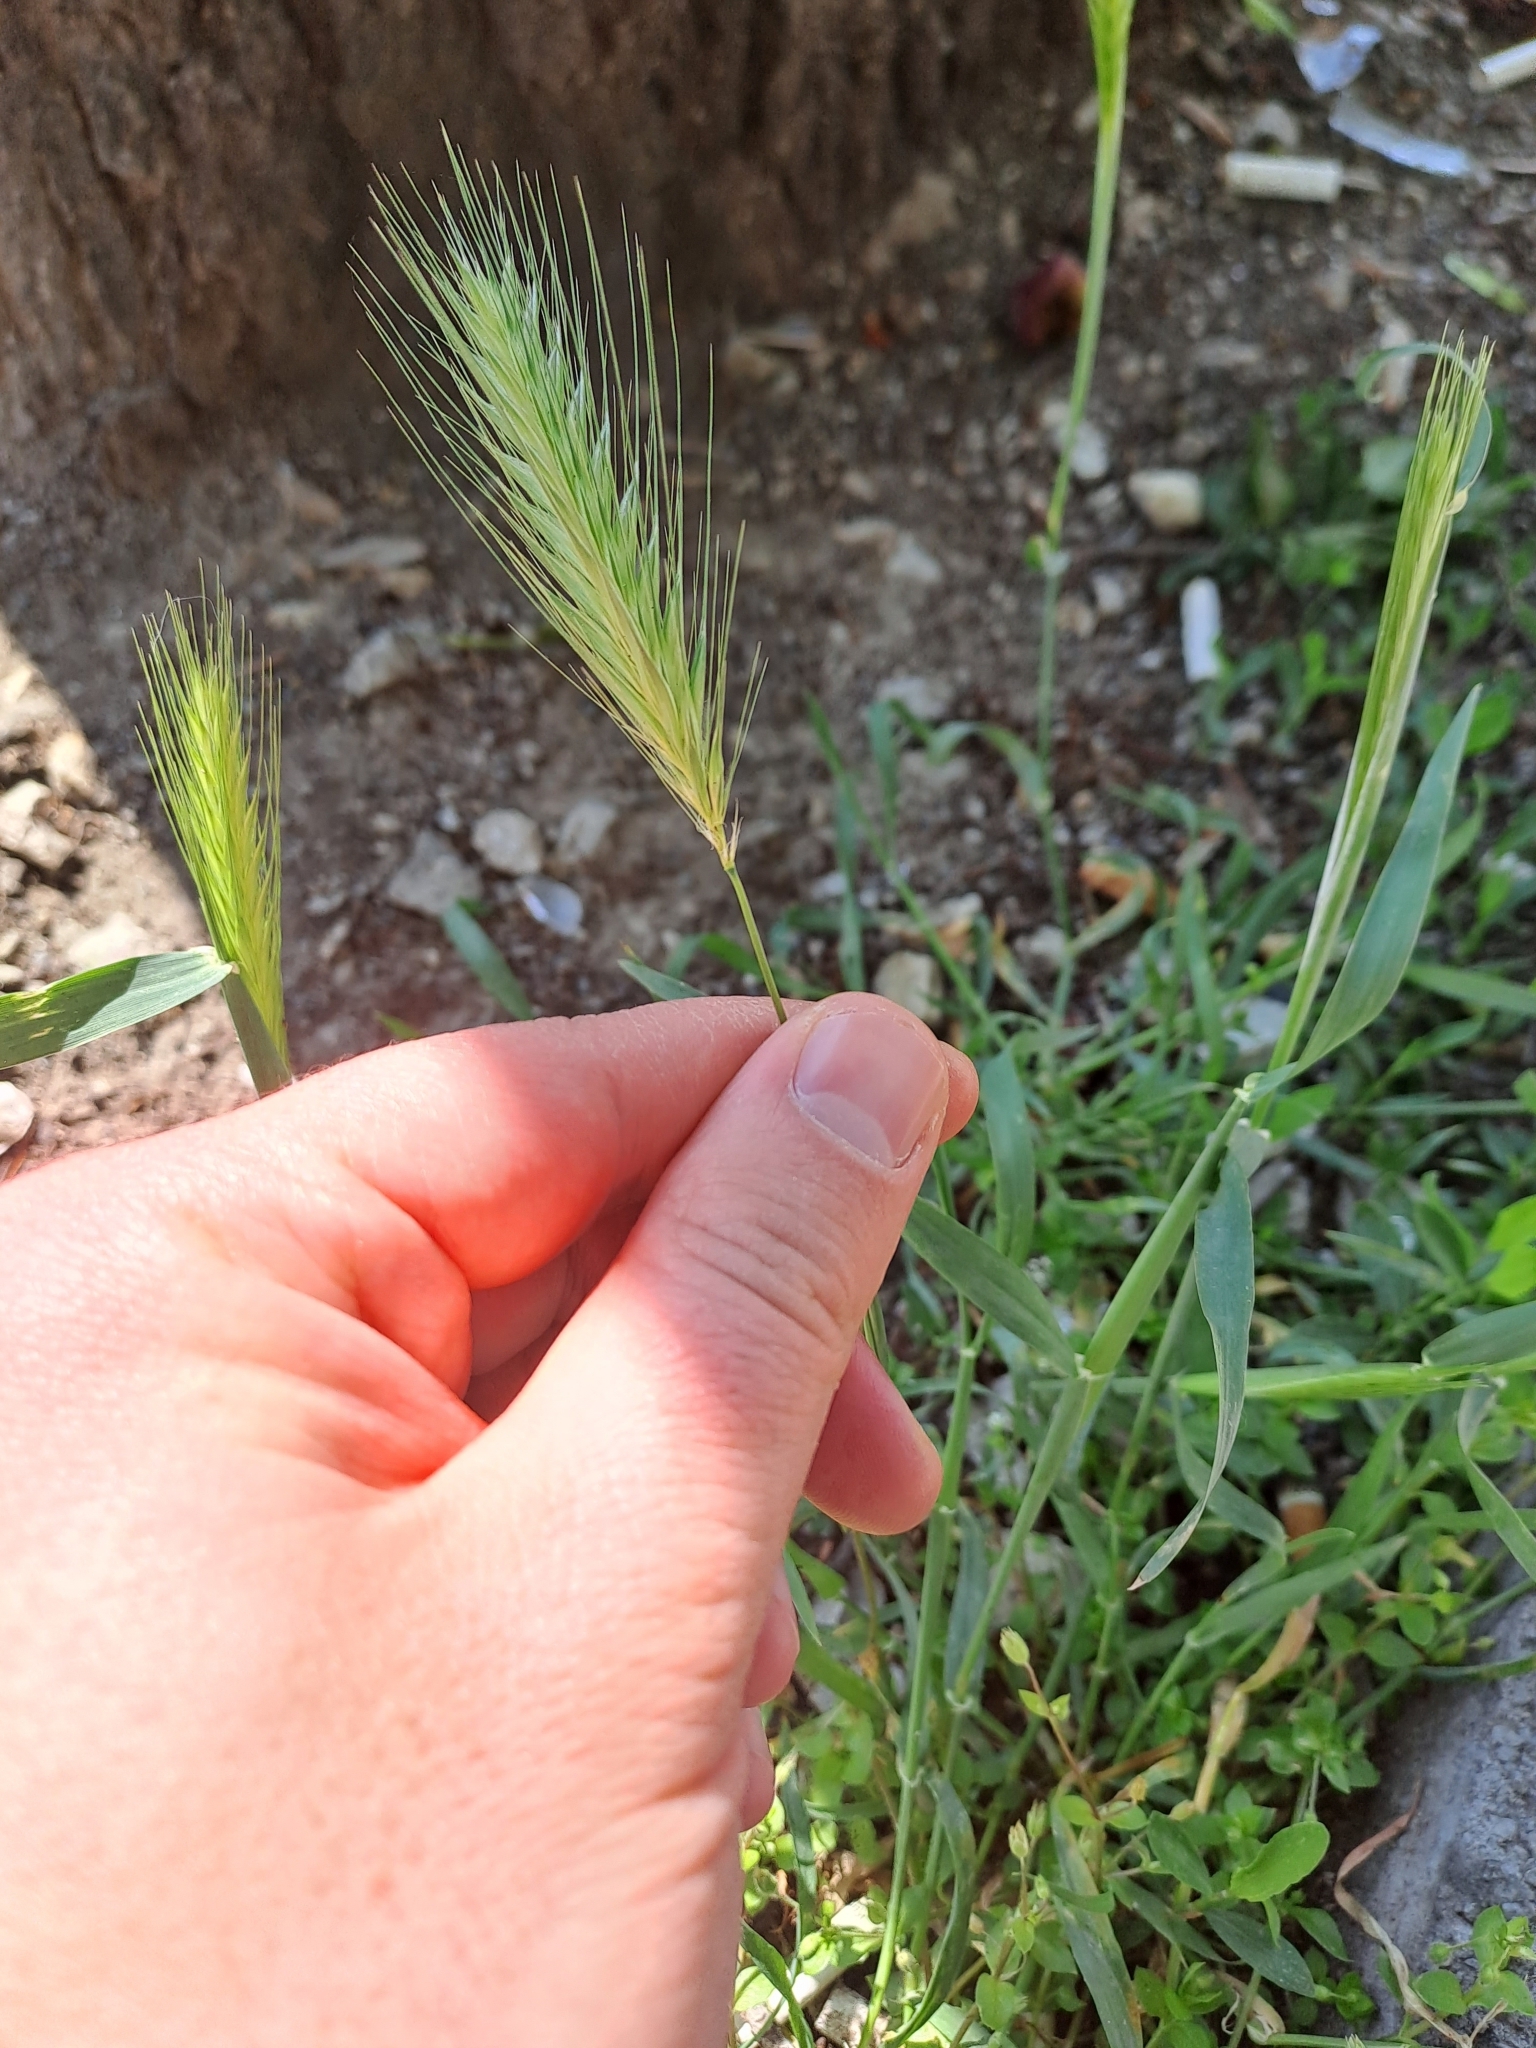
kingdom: Plantae
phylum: Tracheophyta
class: Liliopsida
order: Poales
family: Poaceae
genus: Hordeum
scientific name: Hordeum murinum
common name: Wall barley
